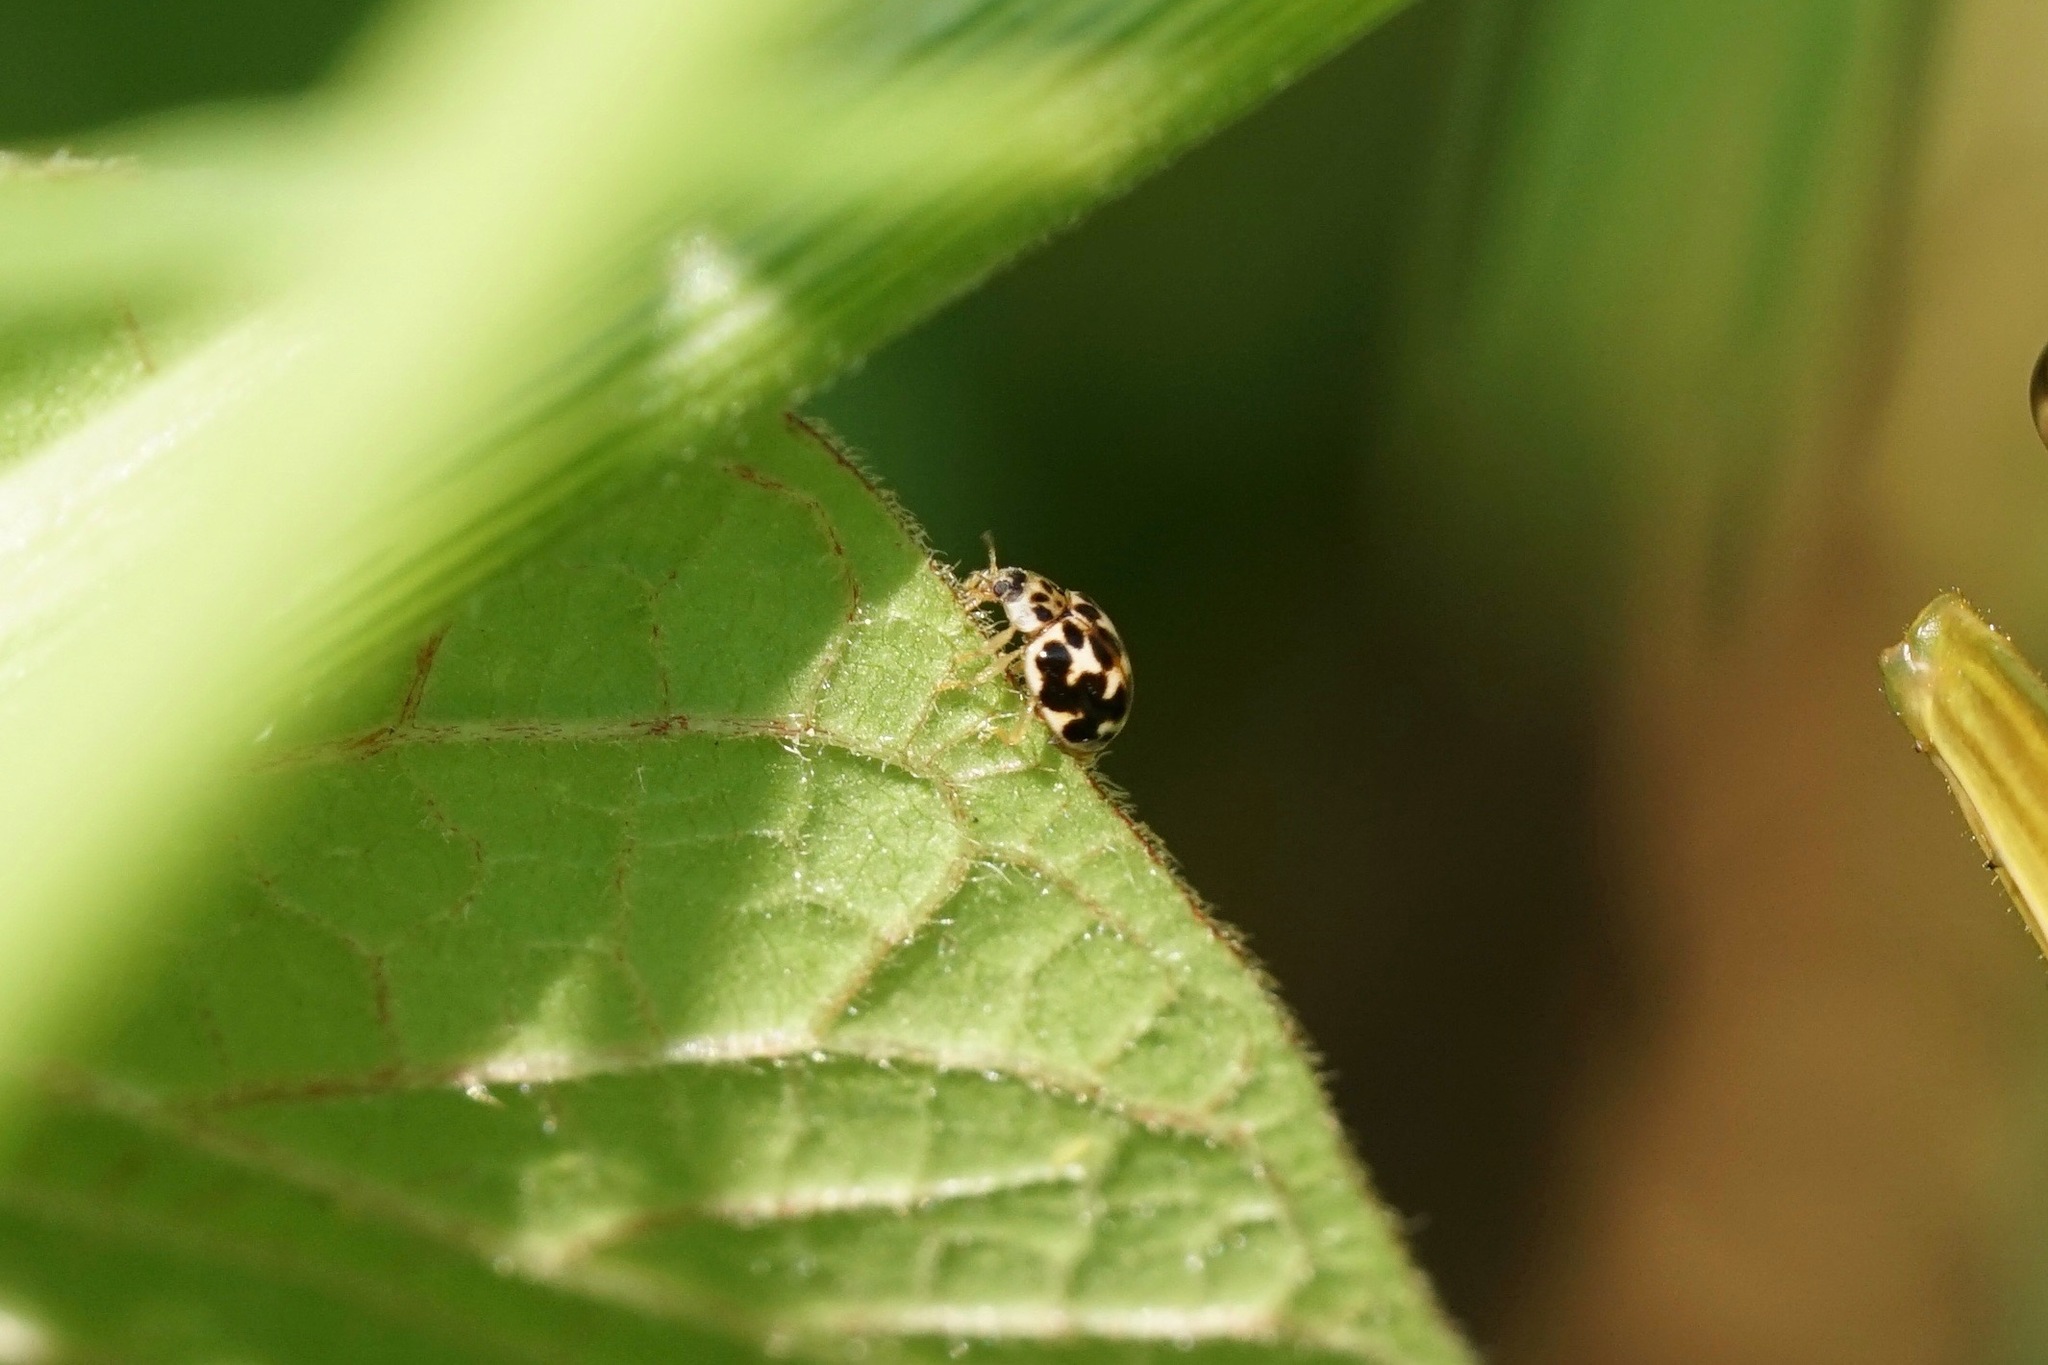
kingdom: Animalia
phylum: Arthropoda
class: Insecta
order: Coleoptera
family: Coccinellidae
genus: Psyllobora
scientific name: Psyllobora vigintimaculata
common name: Ladybird beetle
